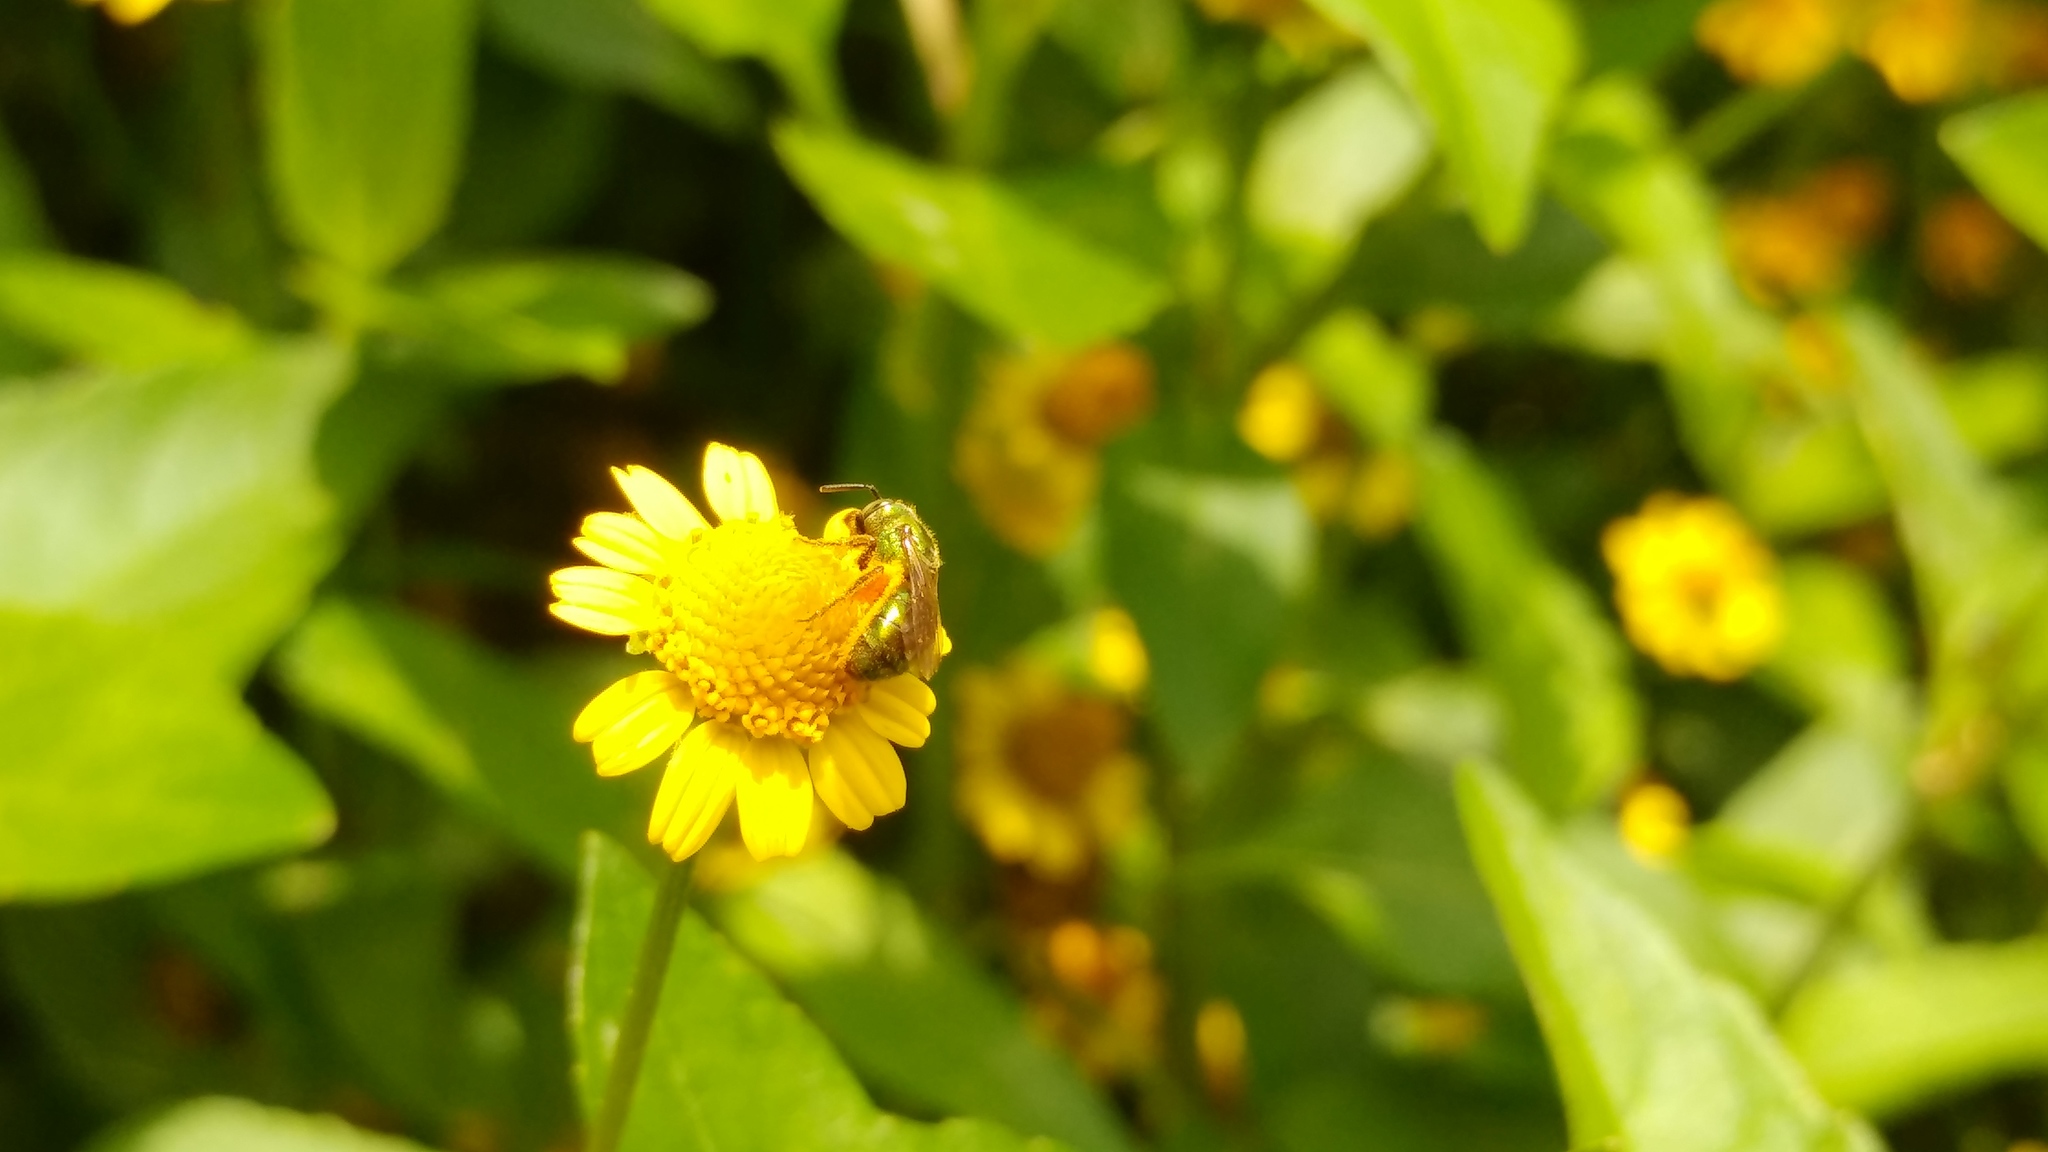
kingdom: Animalia
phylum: Arthropoda
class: Insecta
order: Hymenoptera
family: Halictidae
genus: Augochlora
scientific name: Augochlora aurifera
